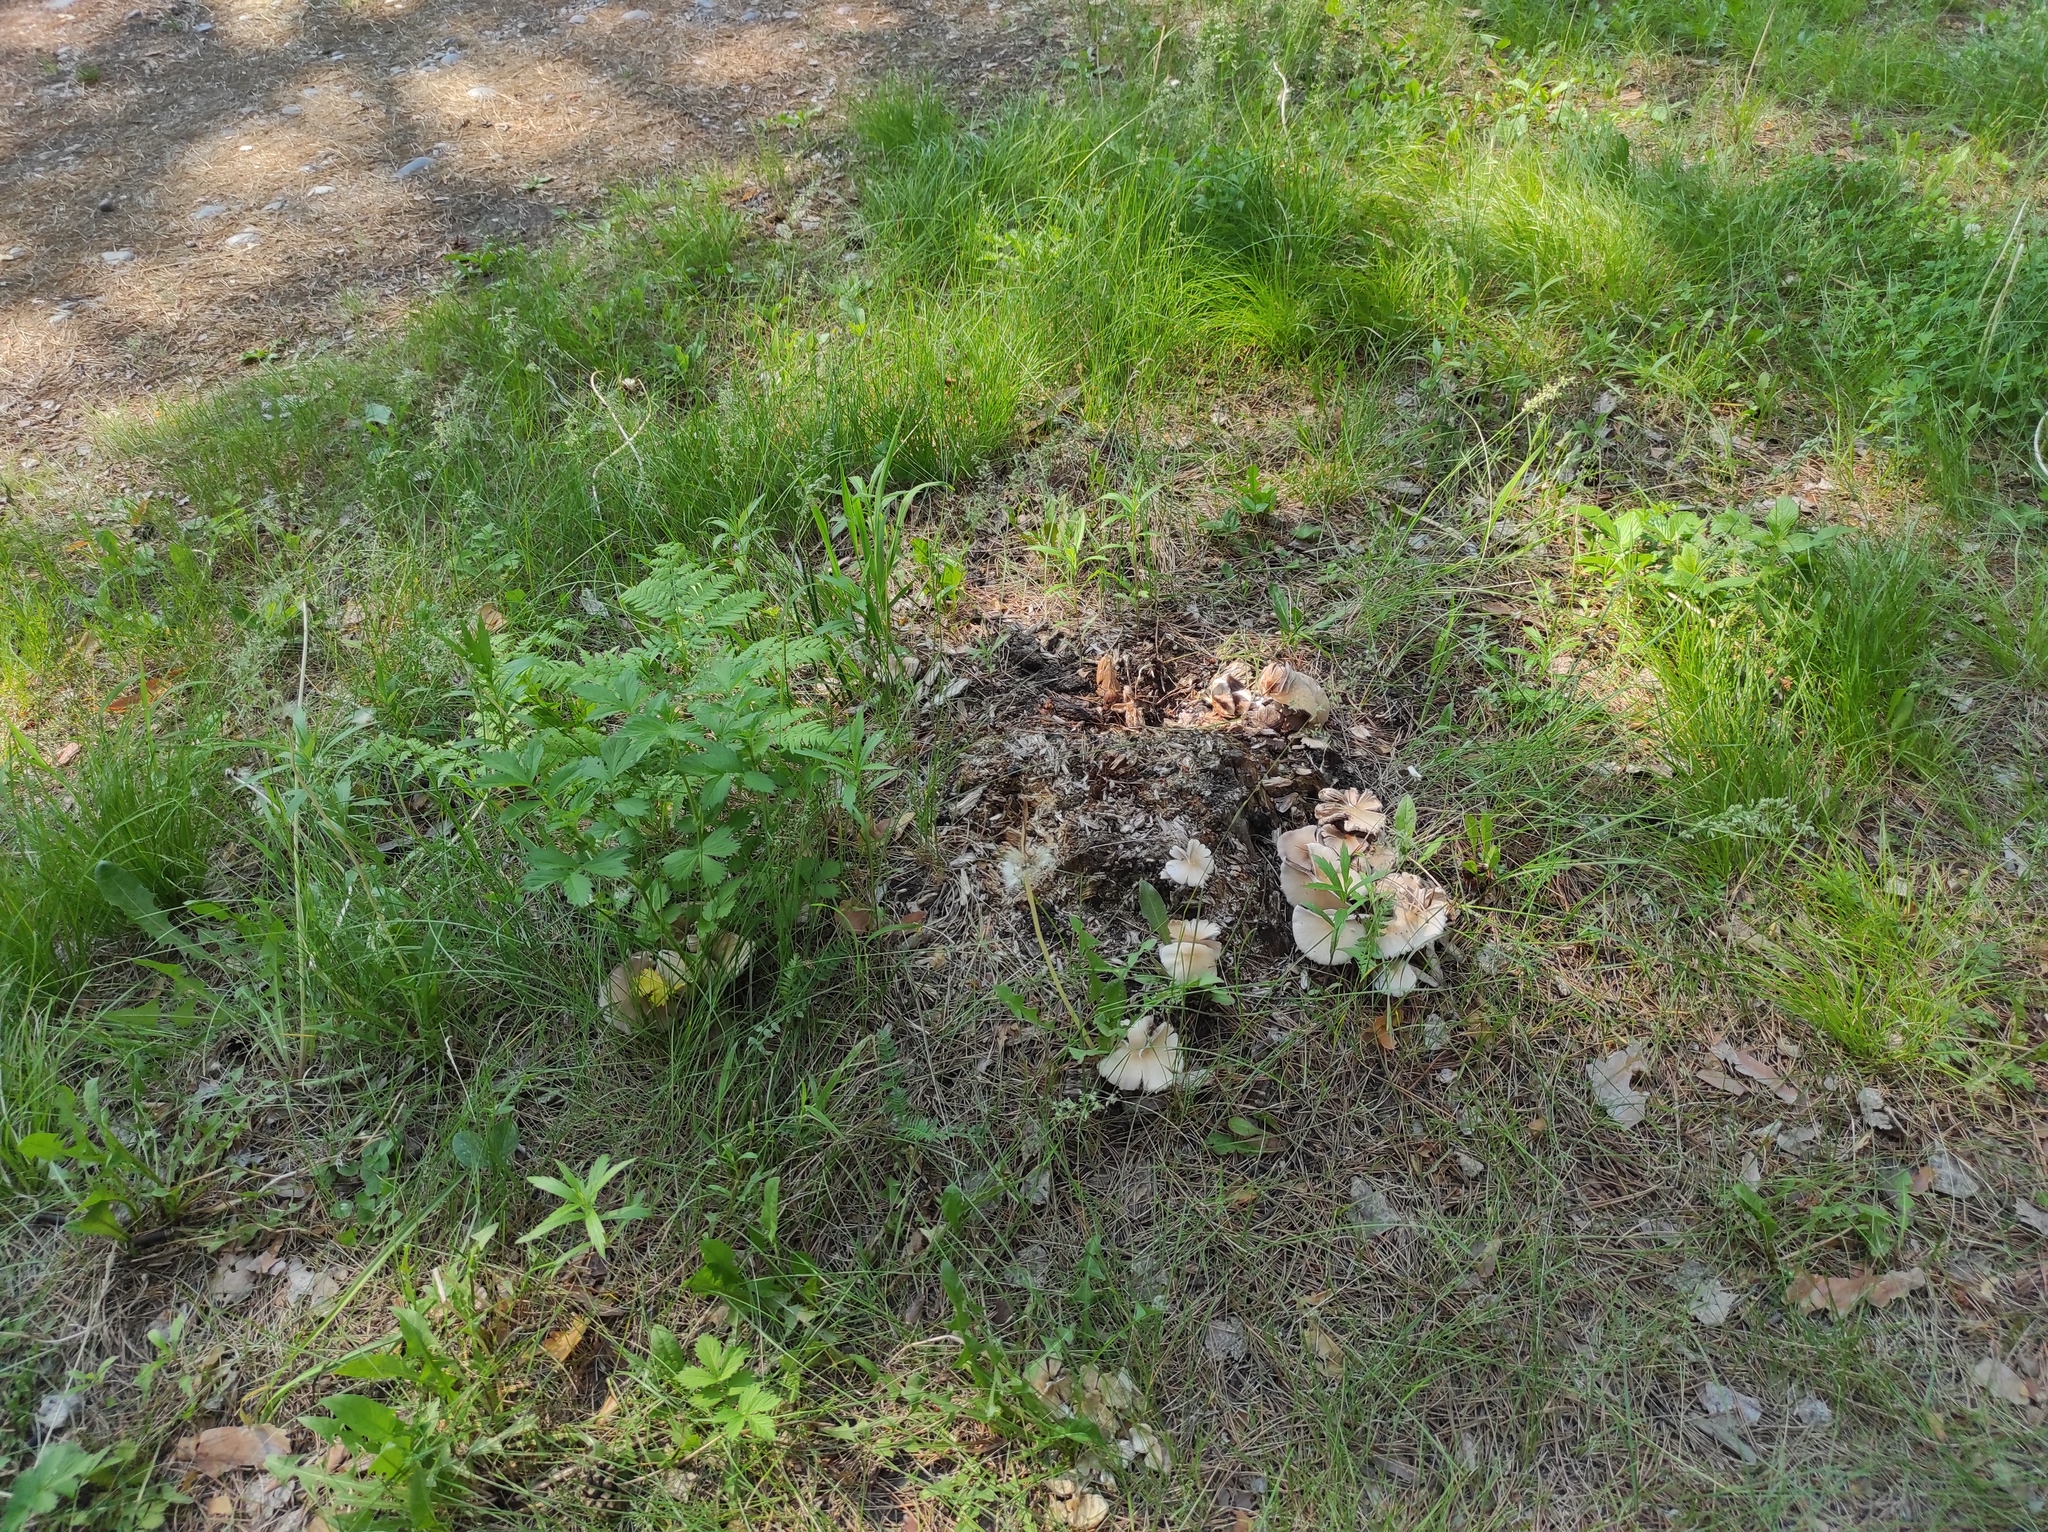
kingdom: Plantae
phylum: Tracheophyta
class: Magnoliopsida
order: Rosales
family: Rosaceae
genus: Agrimonia
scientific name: Agrimonia pilosa
